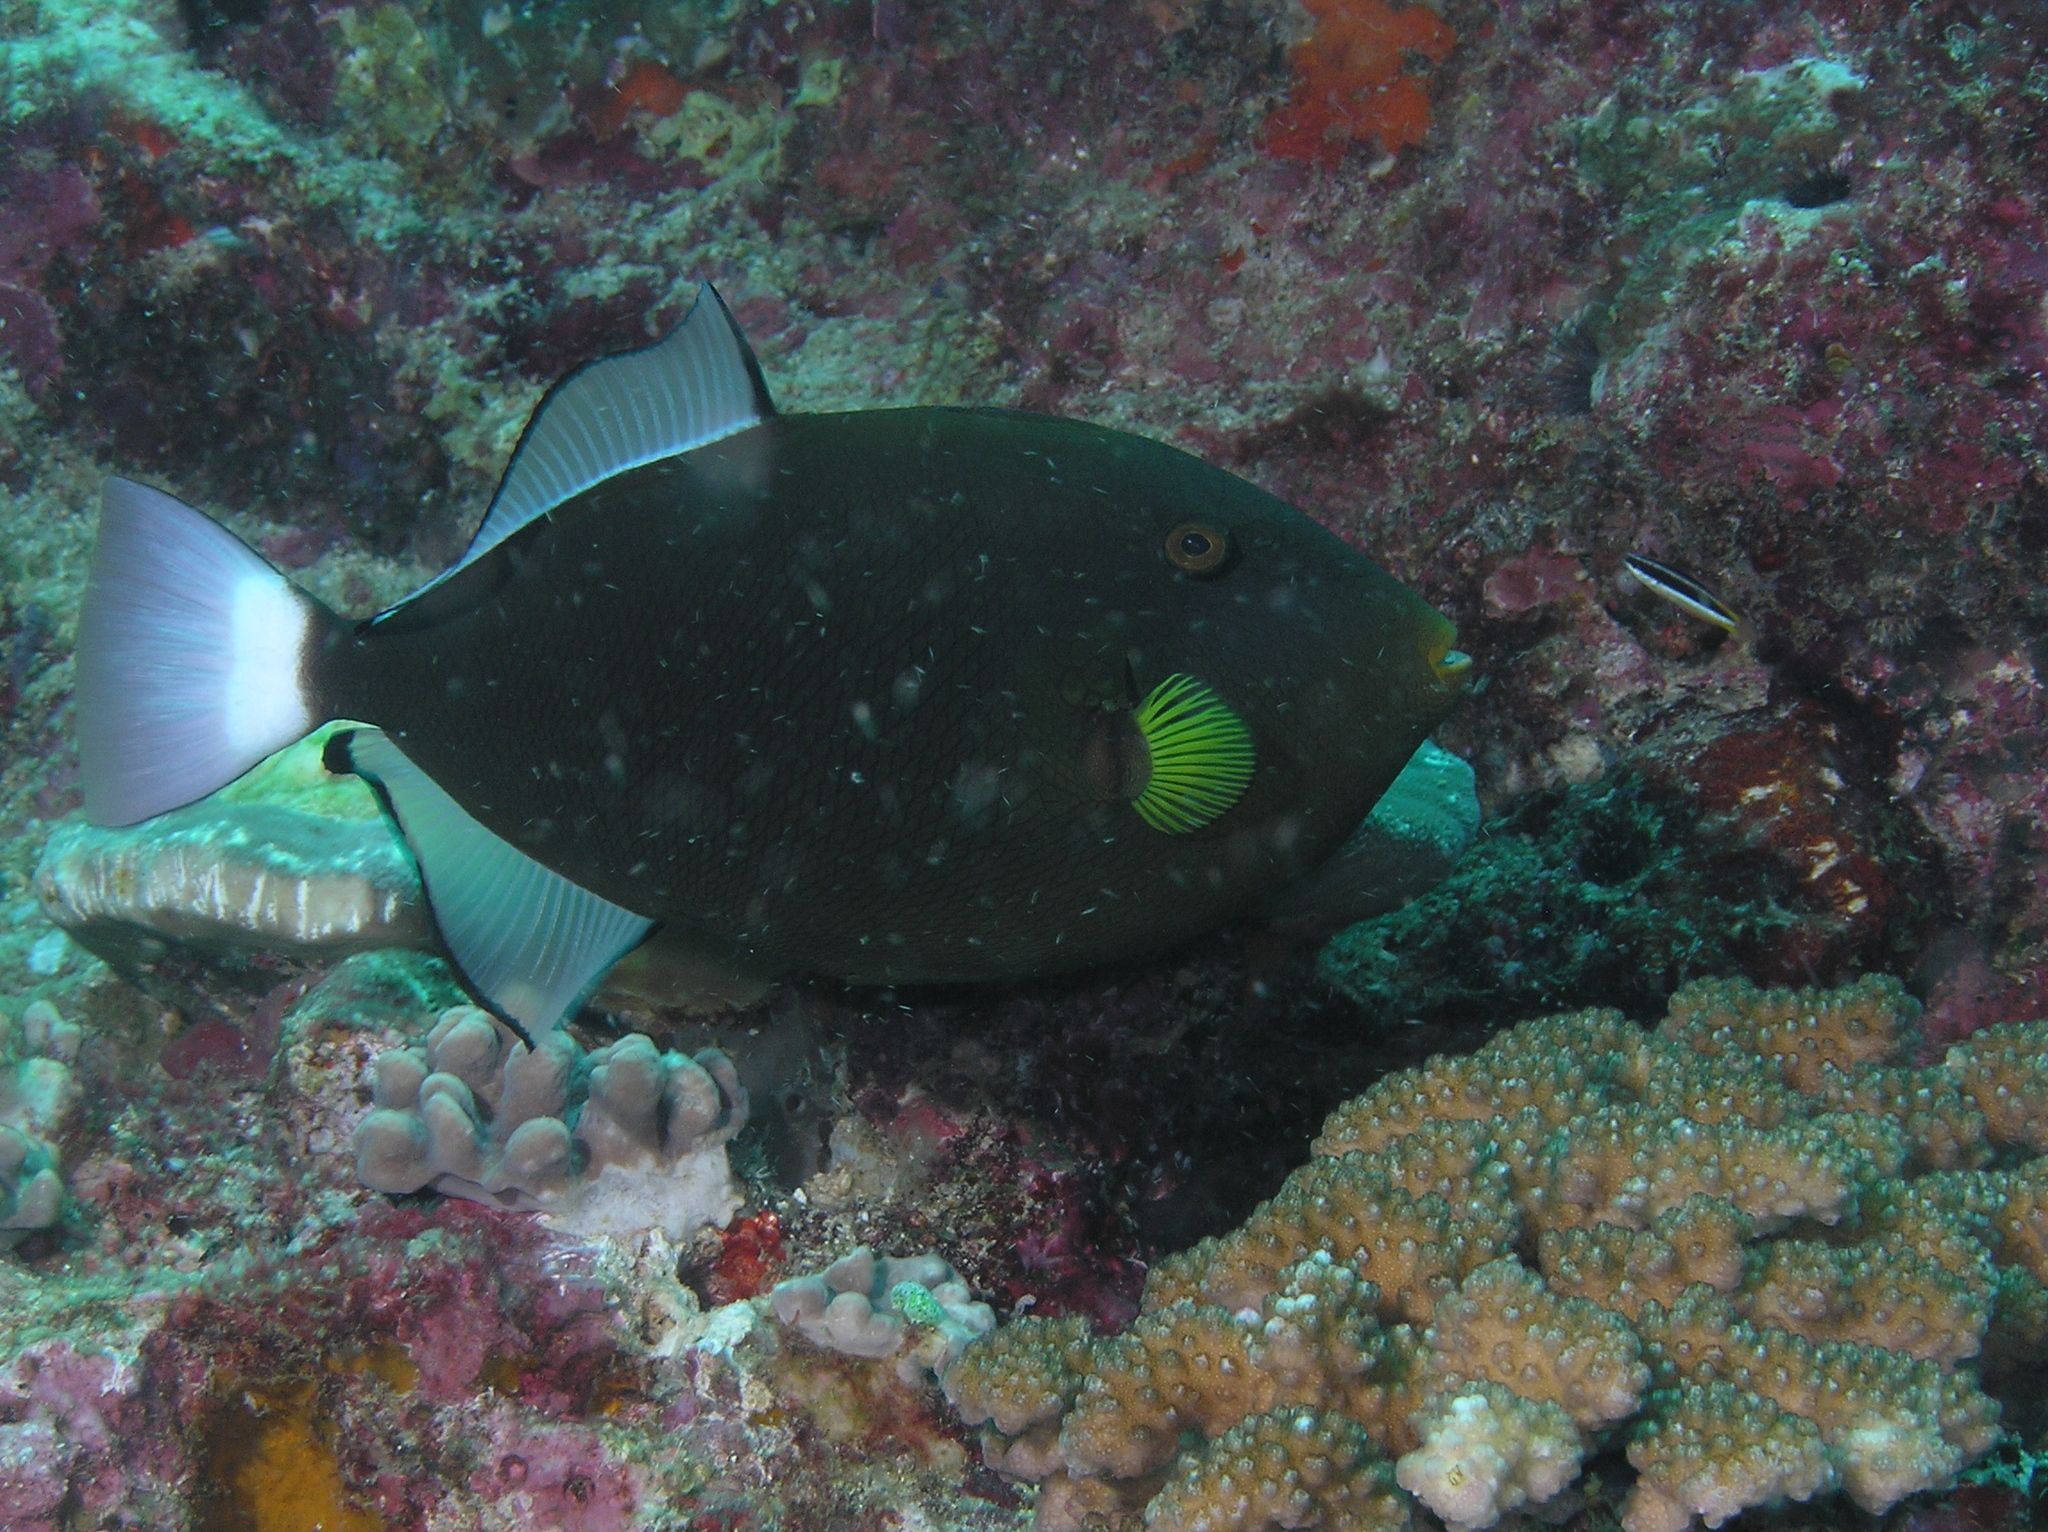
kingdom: Animalia
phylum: Chordata
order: Tetraodontiformes
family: Balistidae
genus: Melichthys
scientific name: Melichthys vidua
